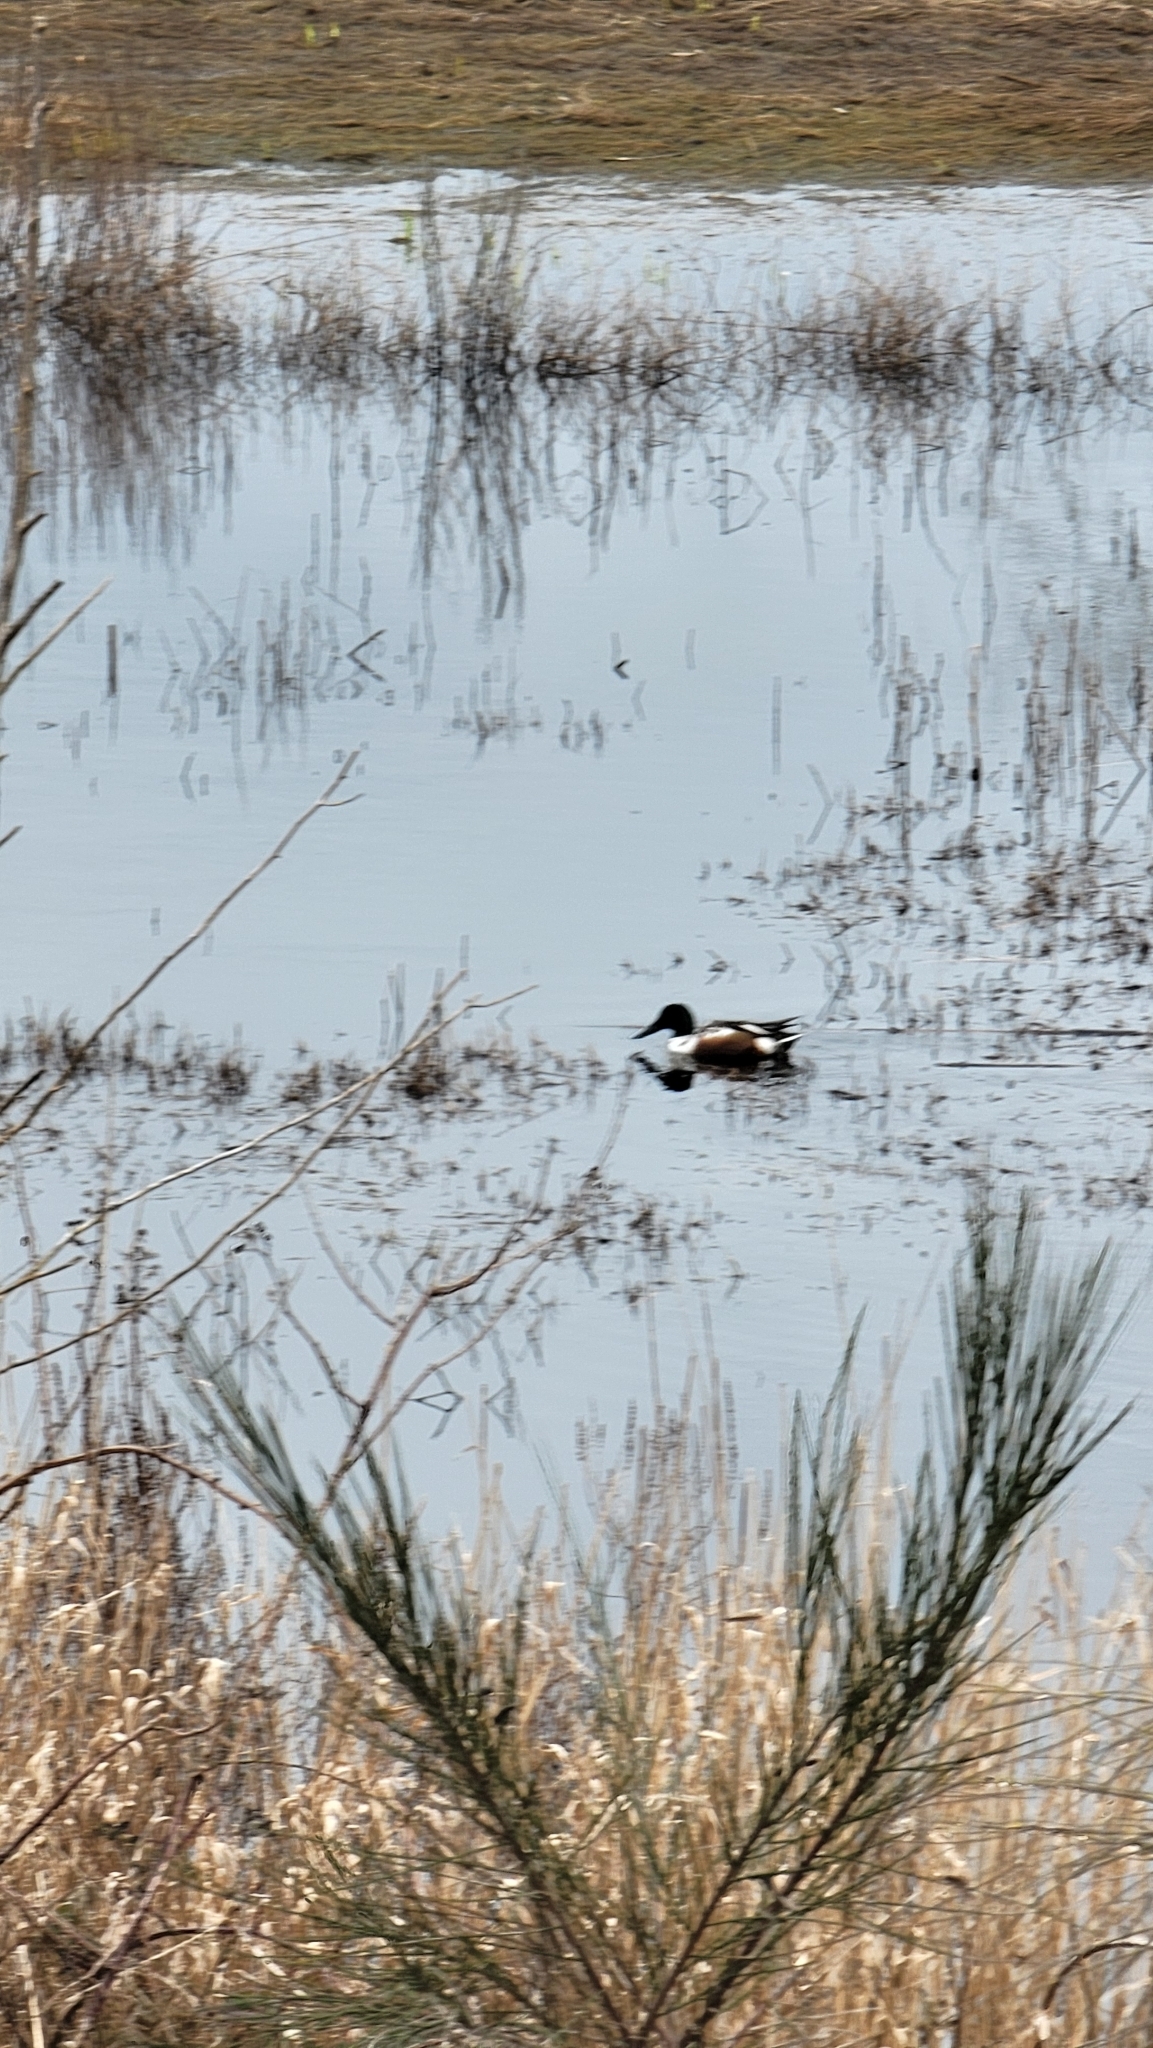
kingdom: Animalia
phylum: Chordata
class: Aves
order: Anseriformes
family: Anatidae
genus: Spatula
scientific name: Spatula clypeata
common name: Northern shoveler
